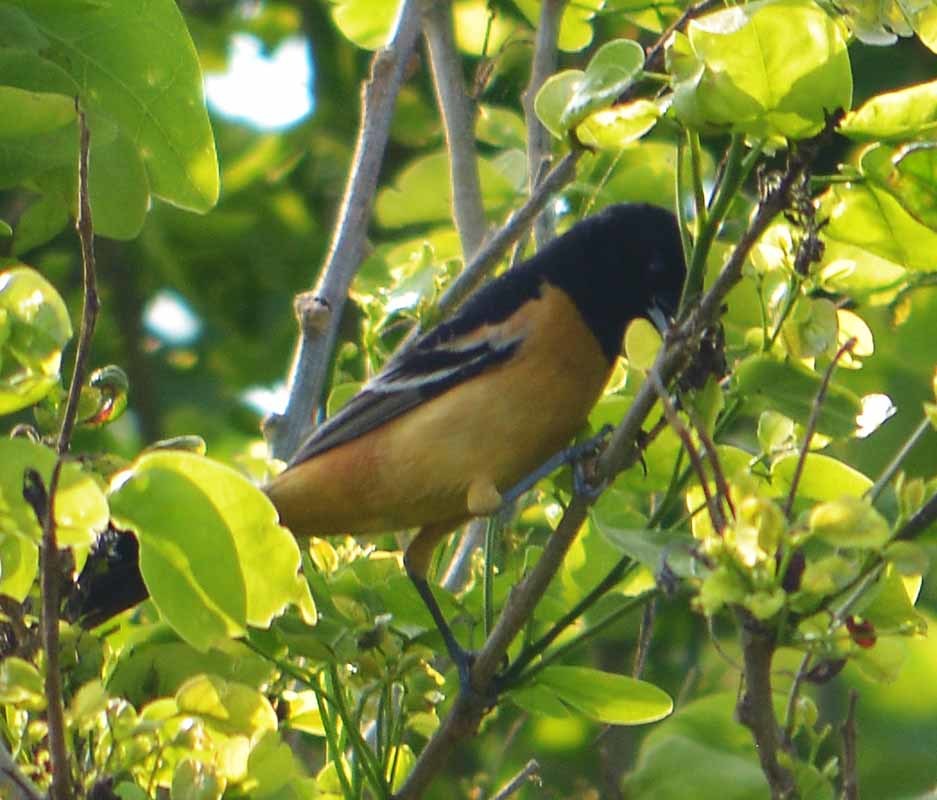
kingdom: Animalia
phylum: Chordata
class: Aves
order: Passeriformes
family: Icteridae
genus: Icterus
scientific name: Icterus galbula
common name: Baltimore oriole
